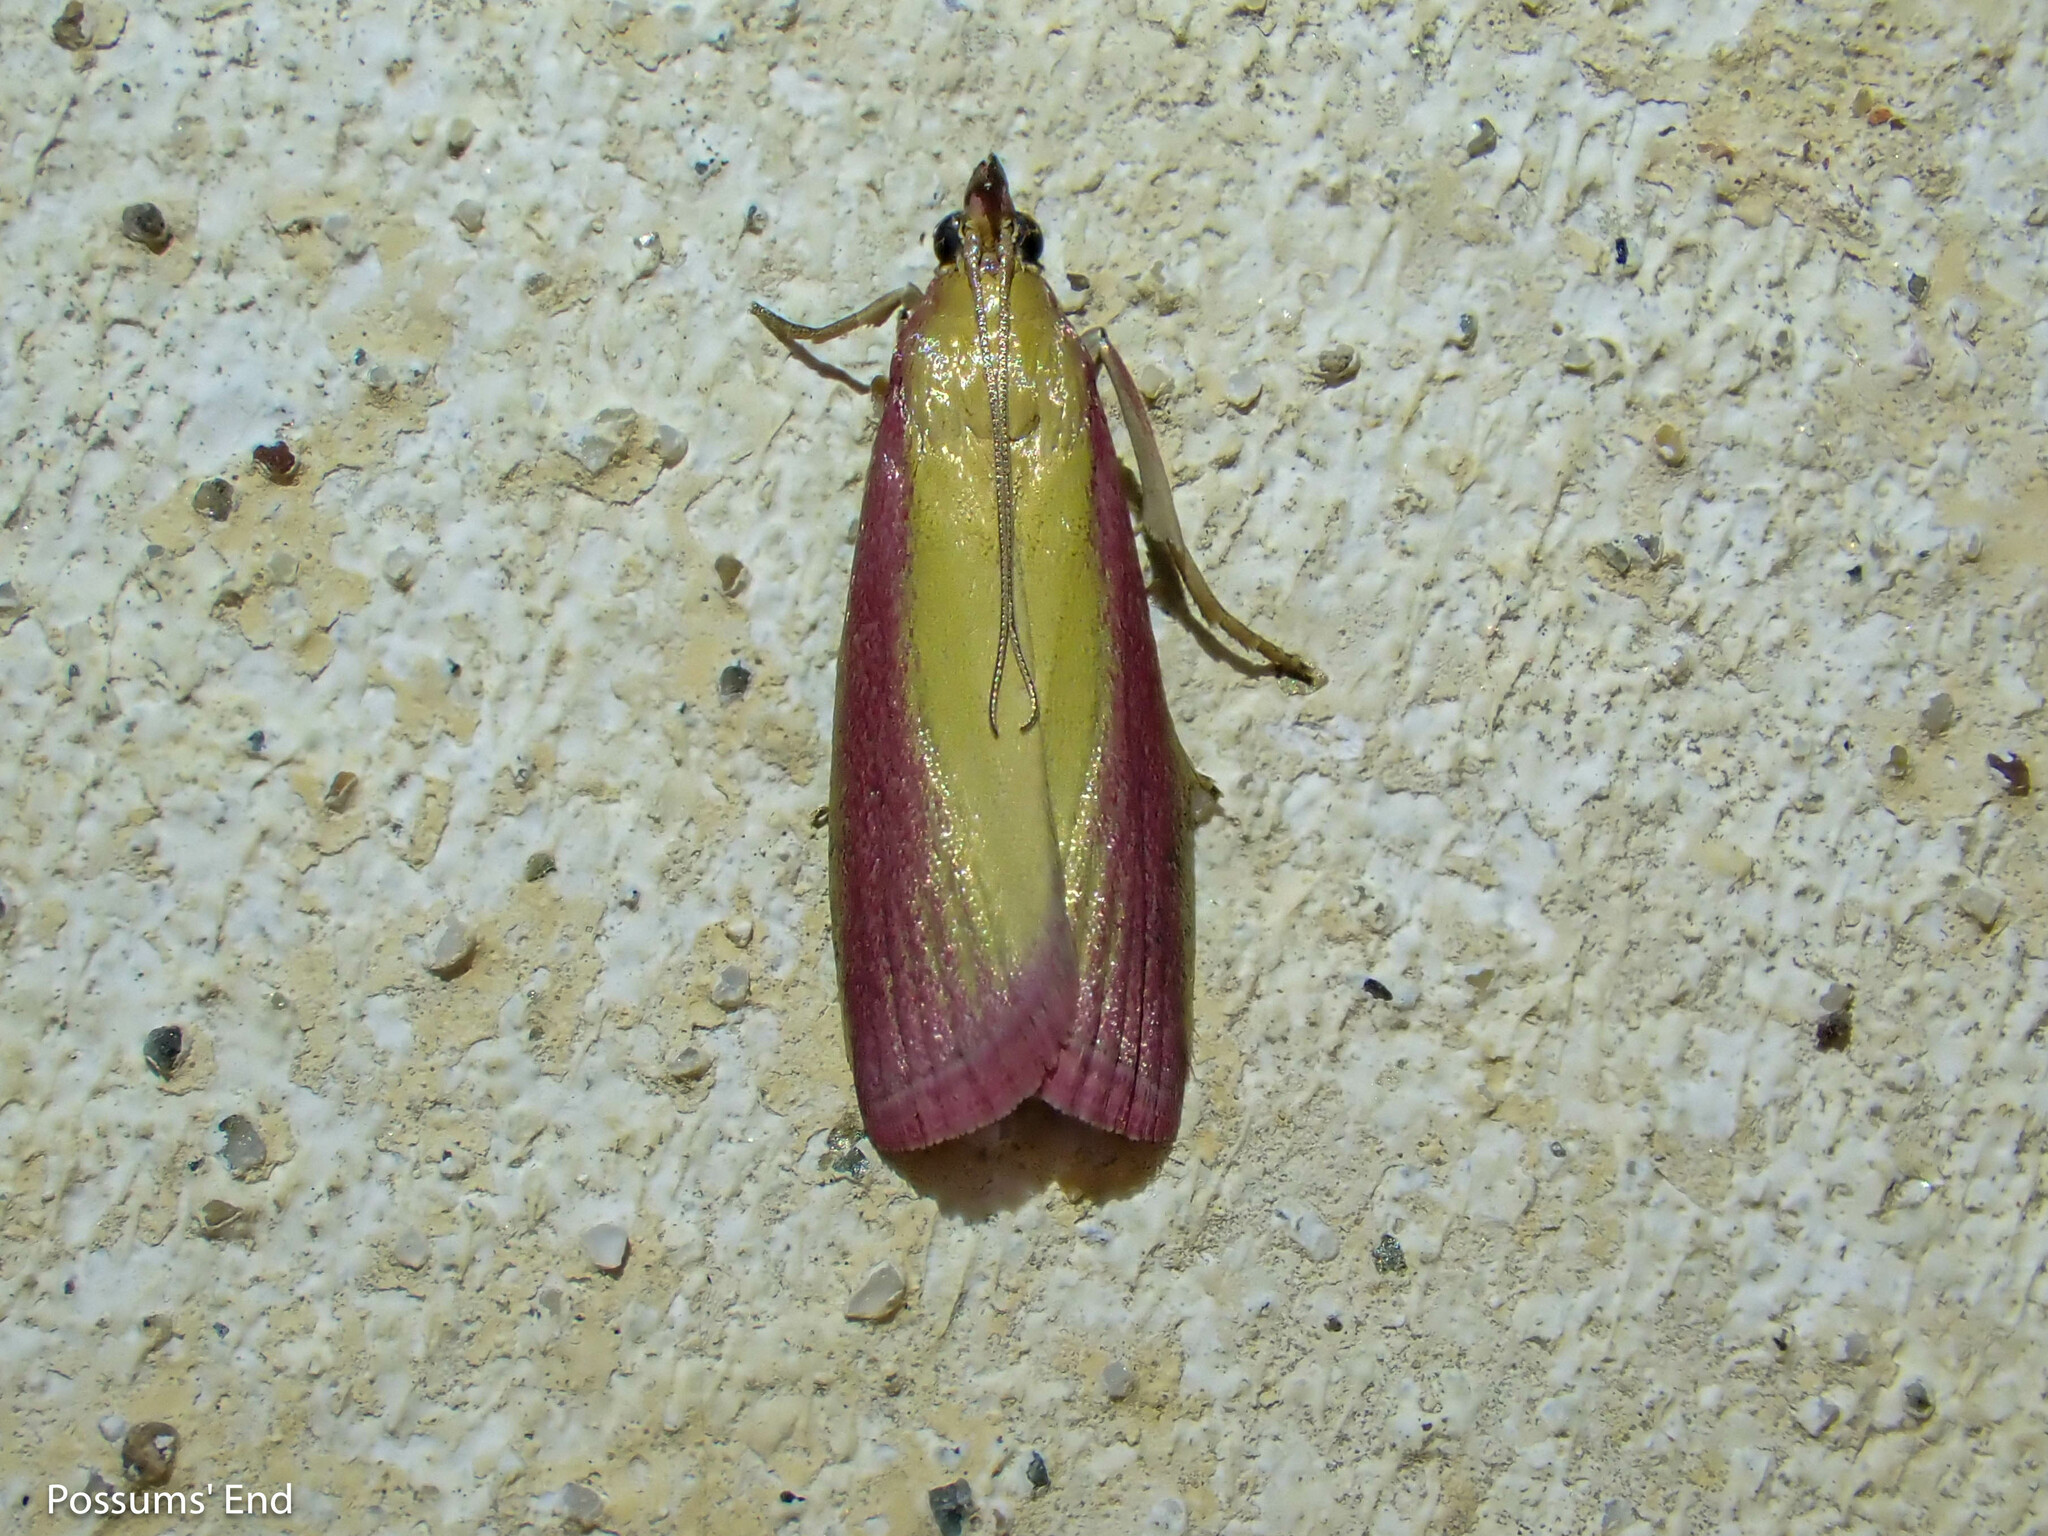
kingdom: Animalia
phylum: Arthropoda
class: Insecta
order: Lepidoptera
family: Pyralidae
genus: Oncocera
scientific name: Oncocera semirubella
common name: Rosy-striped knot-horn
